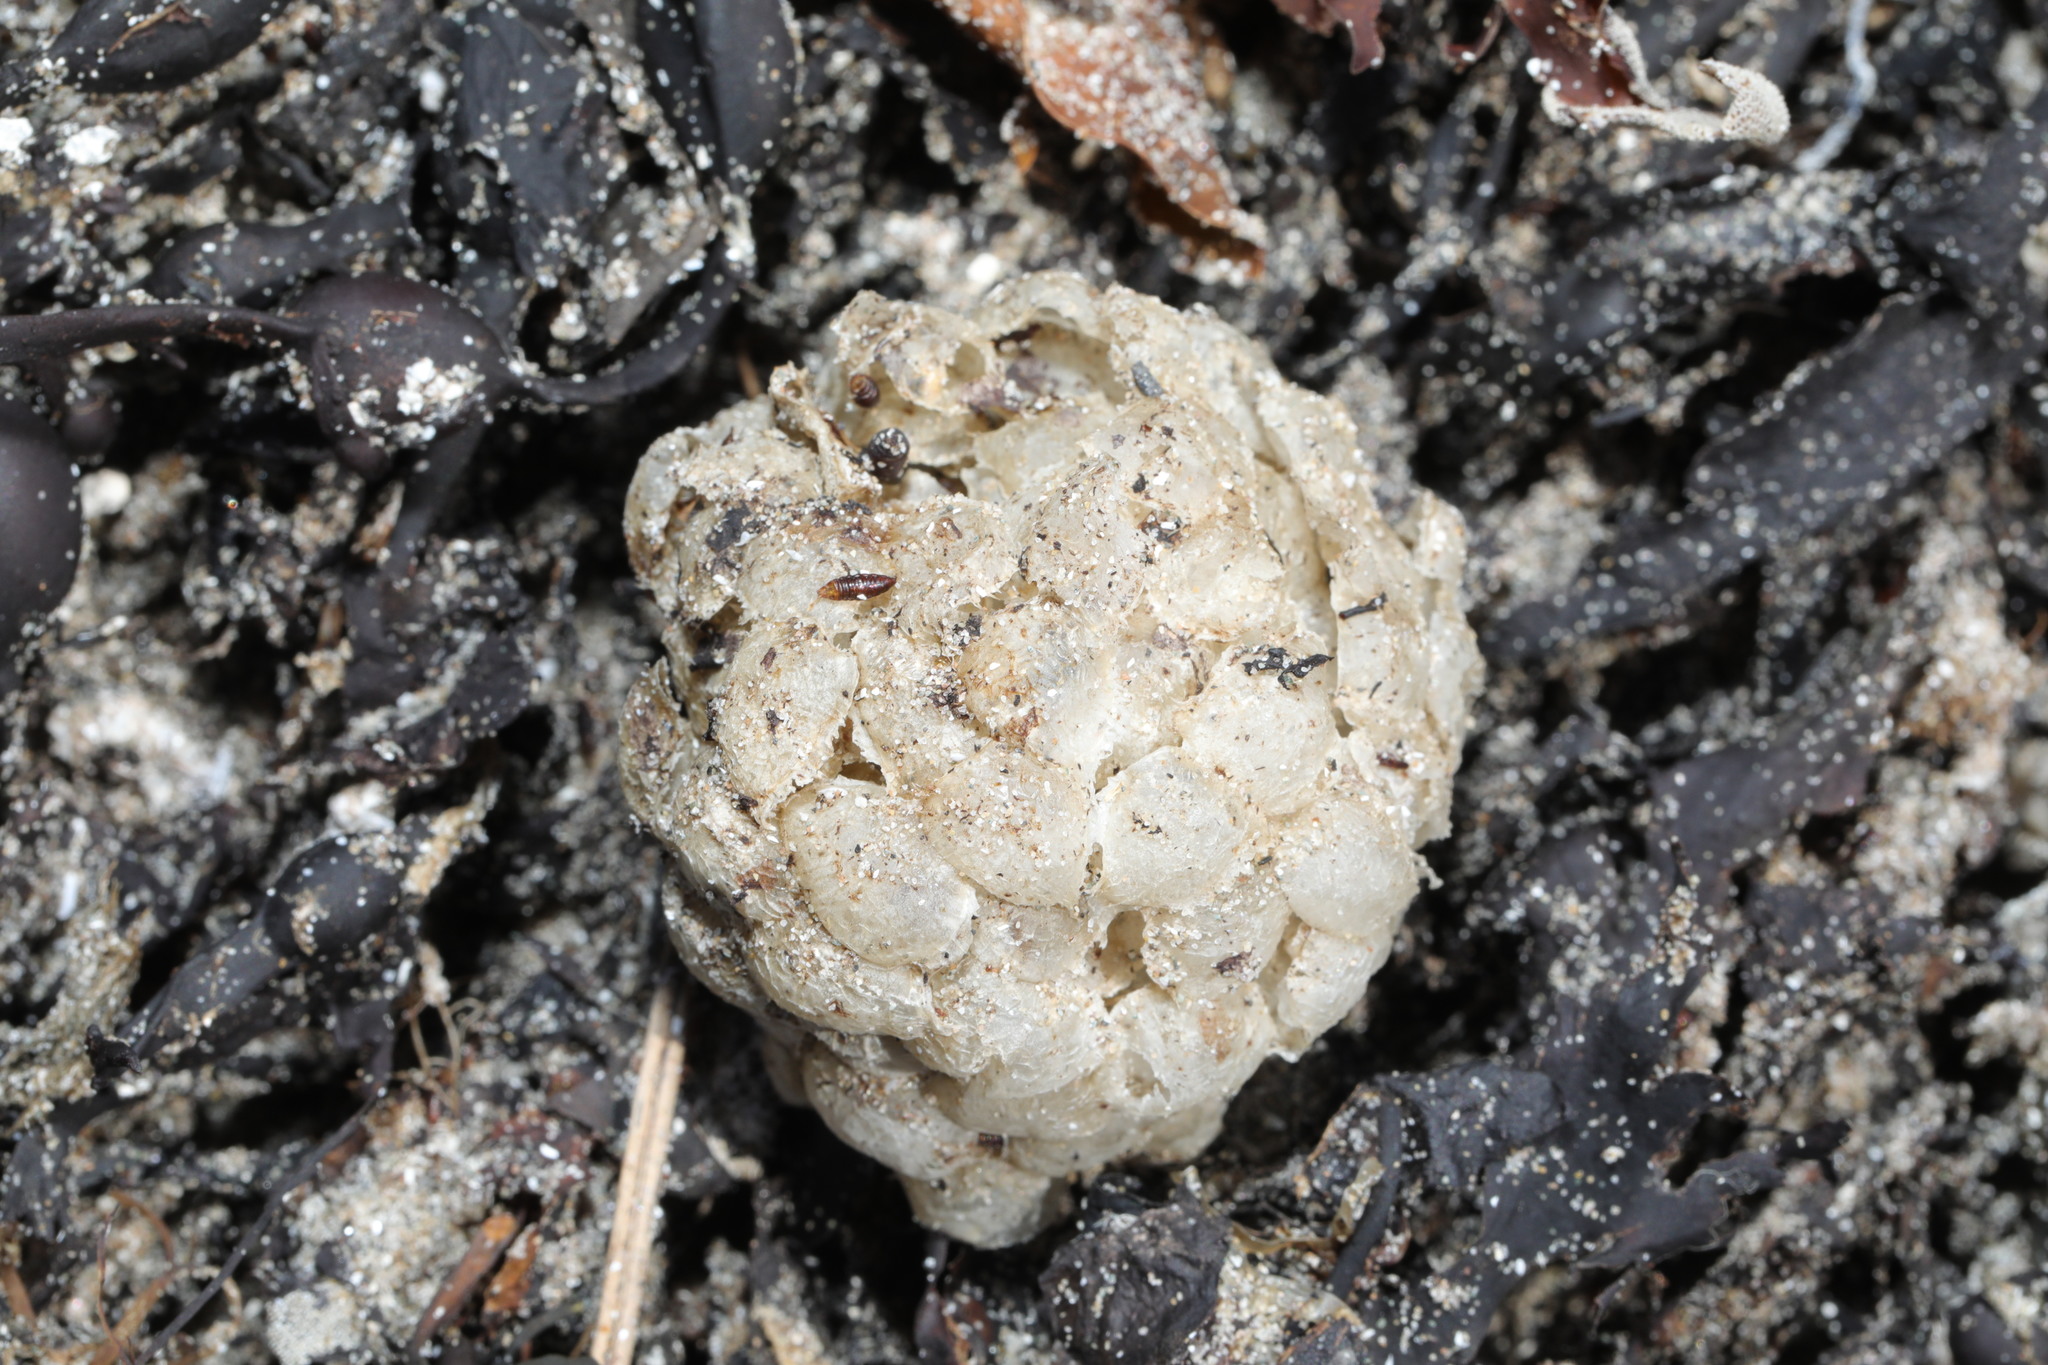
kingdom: Animalia
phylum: Mollusca
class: Gastropoda
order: Neogastropoda
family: Buccinidae
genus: Buccinum
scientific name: Buccinum undatum
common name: Common whelk
